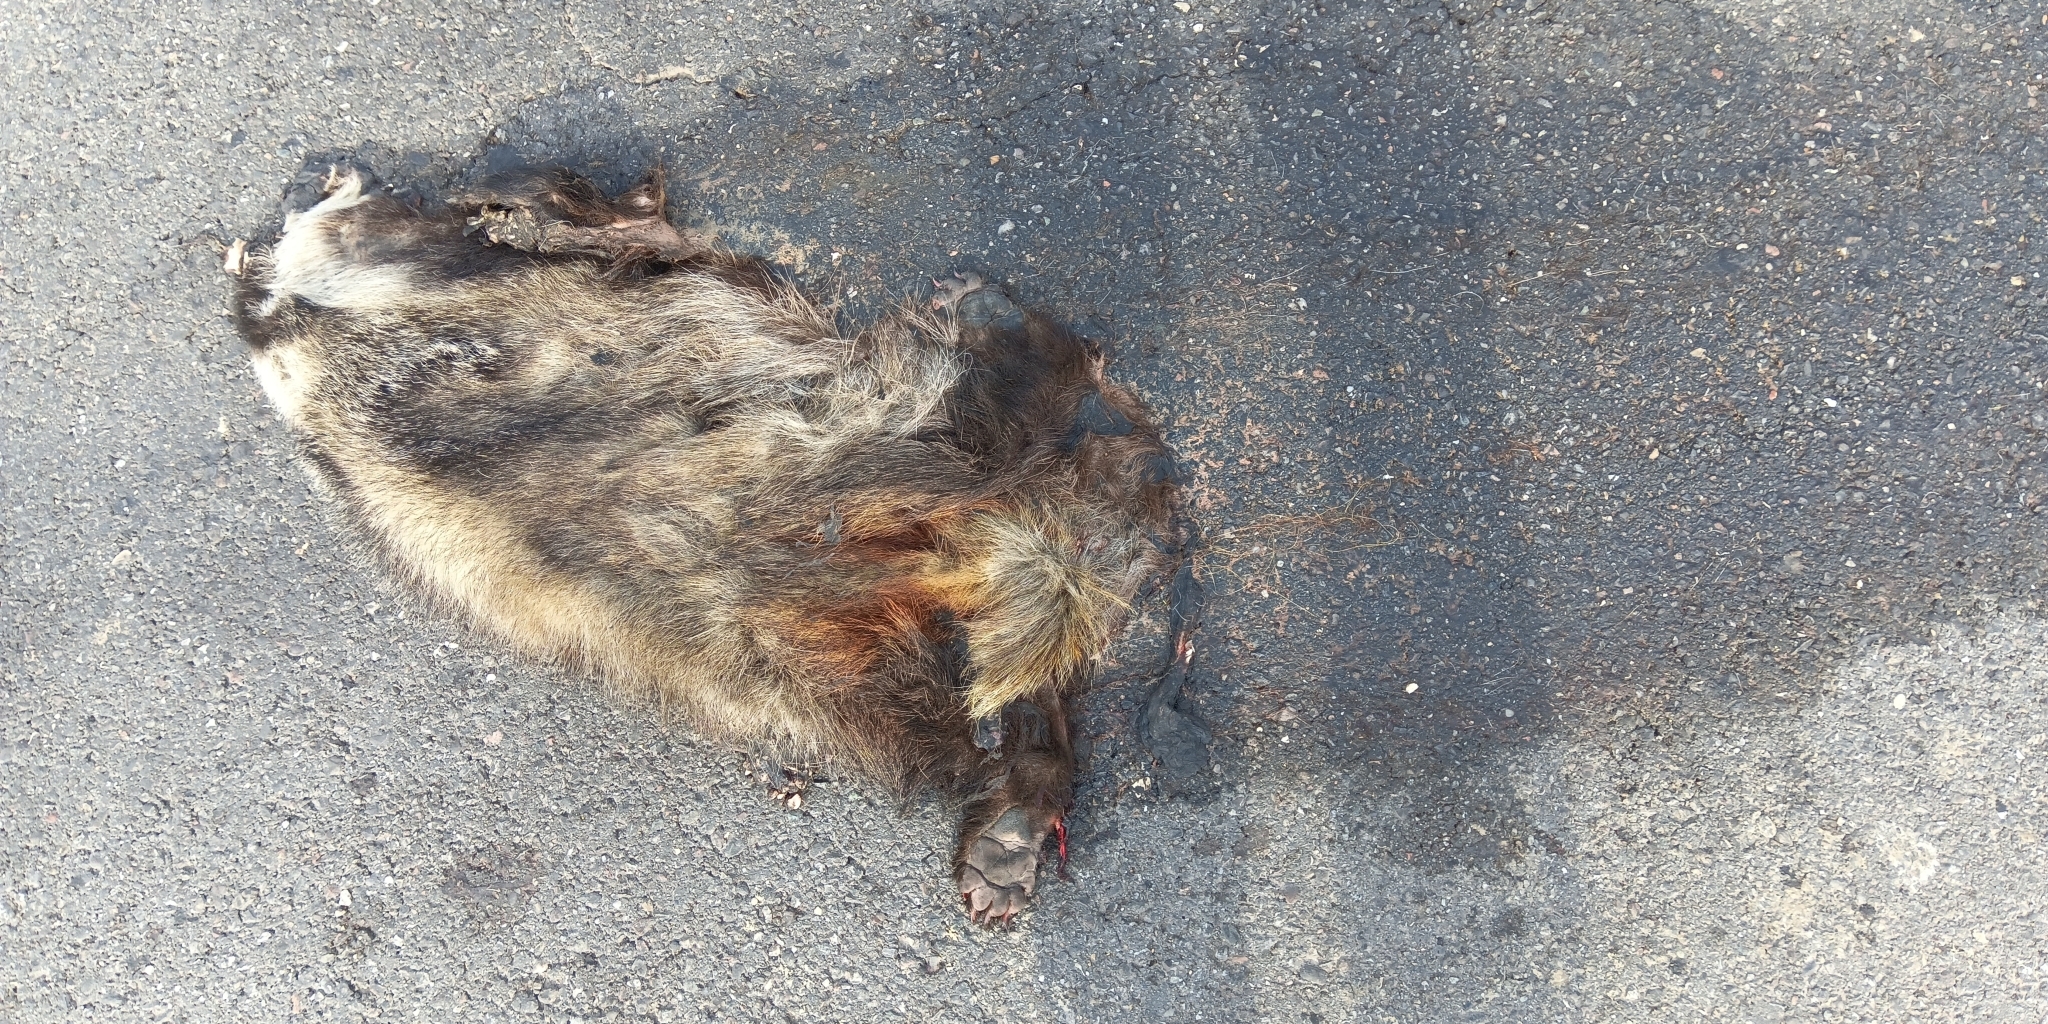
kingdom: Animalia
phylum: Chordata
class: Mammalia
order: Carnivora
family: Mustelidae
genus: Meles
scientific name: Meles meles
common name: Eurasian badger
